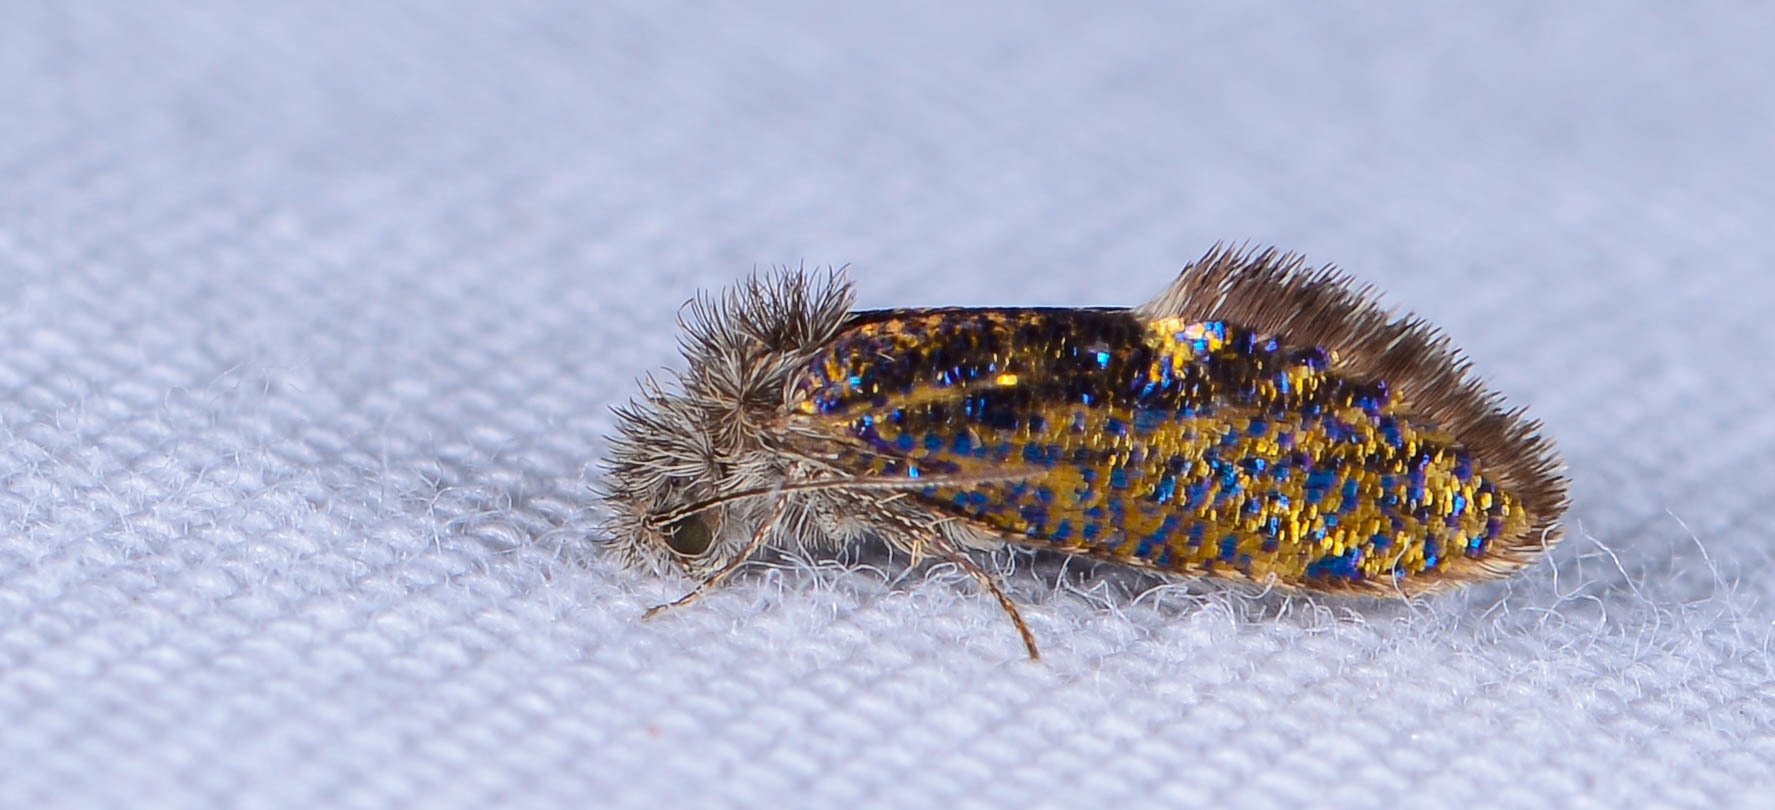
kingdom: Animalia
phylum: Arthropoda
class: Insecta
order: Lepidoptera
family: Eriocraniidae
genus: Dyseriocrania
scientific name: Dyseriocrania griseocapitella
